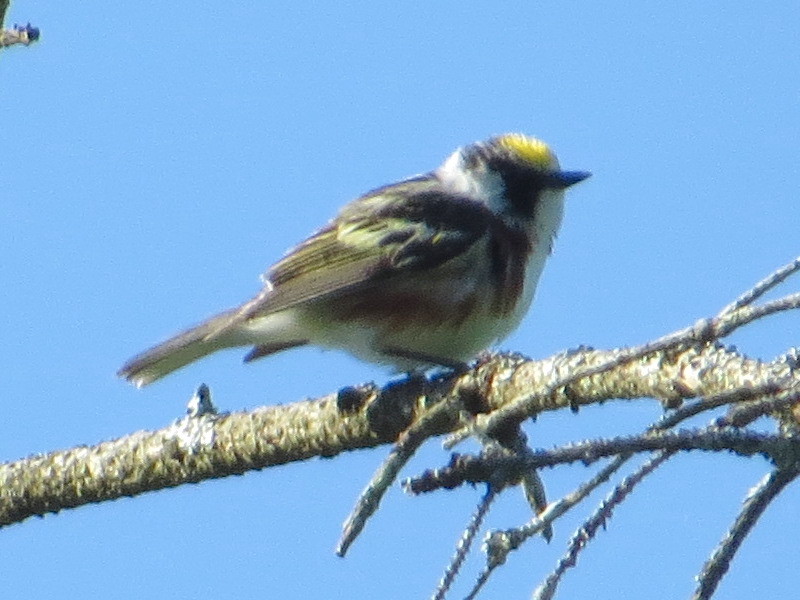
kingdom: Animalia
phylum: Chordata
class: Aves
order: Passeriformes
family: Parulidae
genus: Setophaga
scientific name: Setophaga pensylvanica
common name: Chestnut-sided warbler
